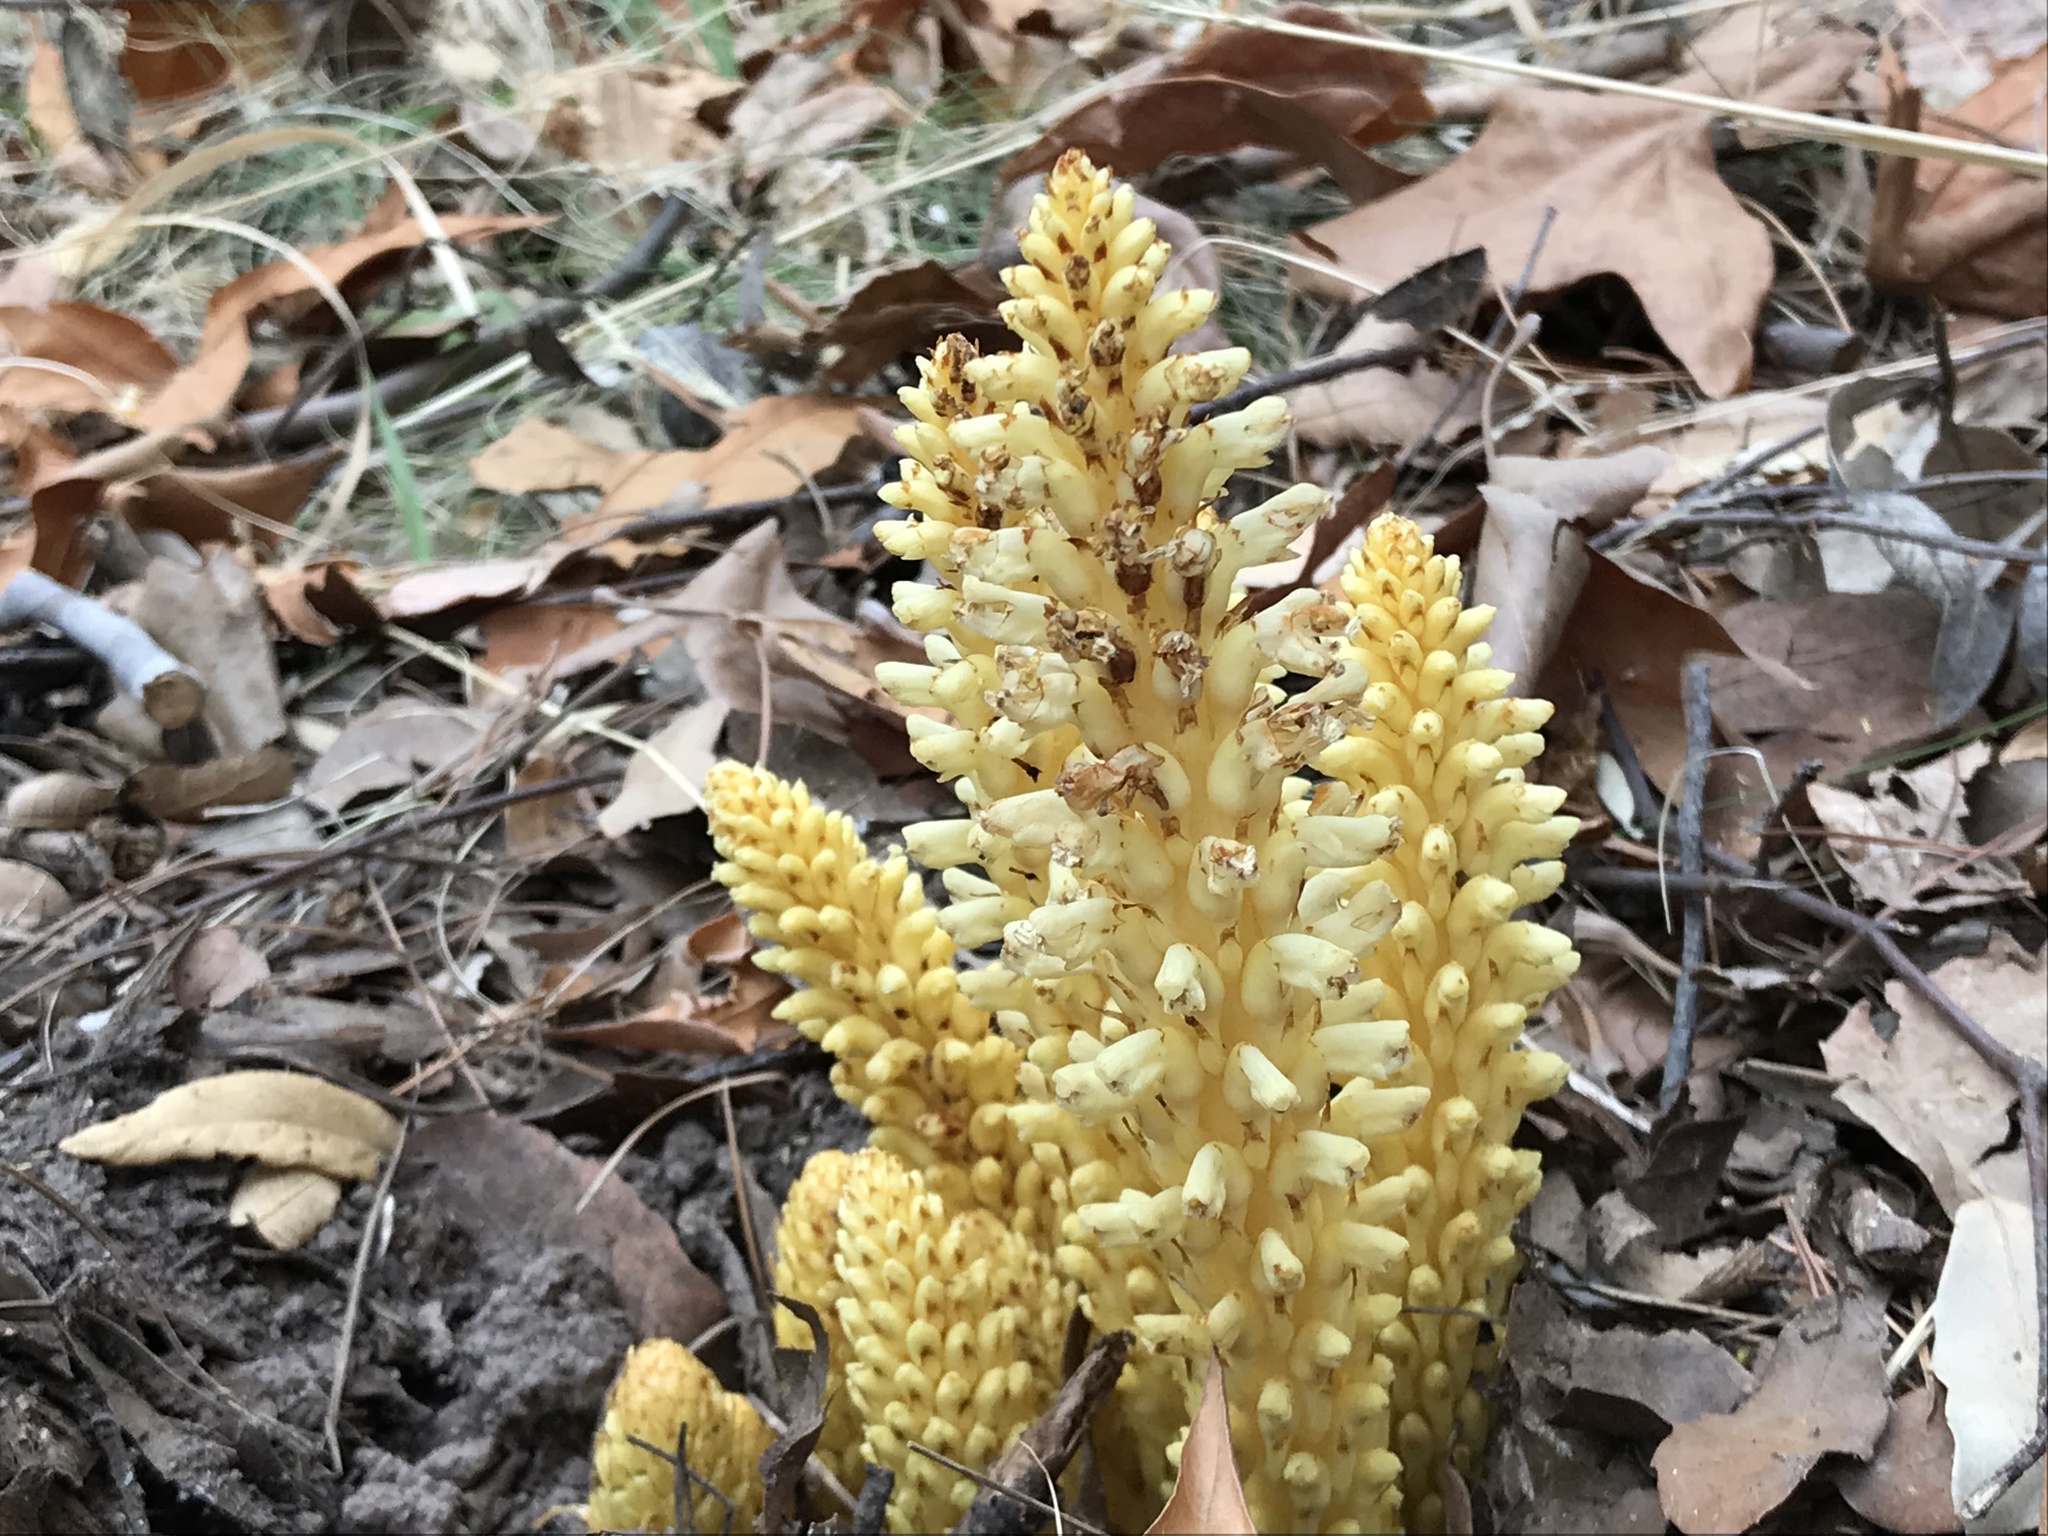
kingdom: Plantae
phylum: Tracheophyta
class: Magnoliopsida
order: Lamiales
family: Orobanchaceae
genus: Conopholis
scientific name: Conopholis alpina
